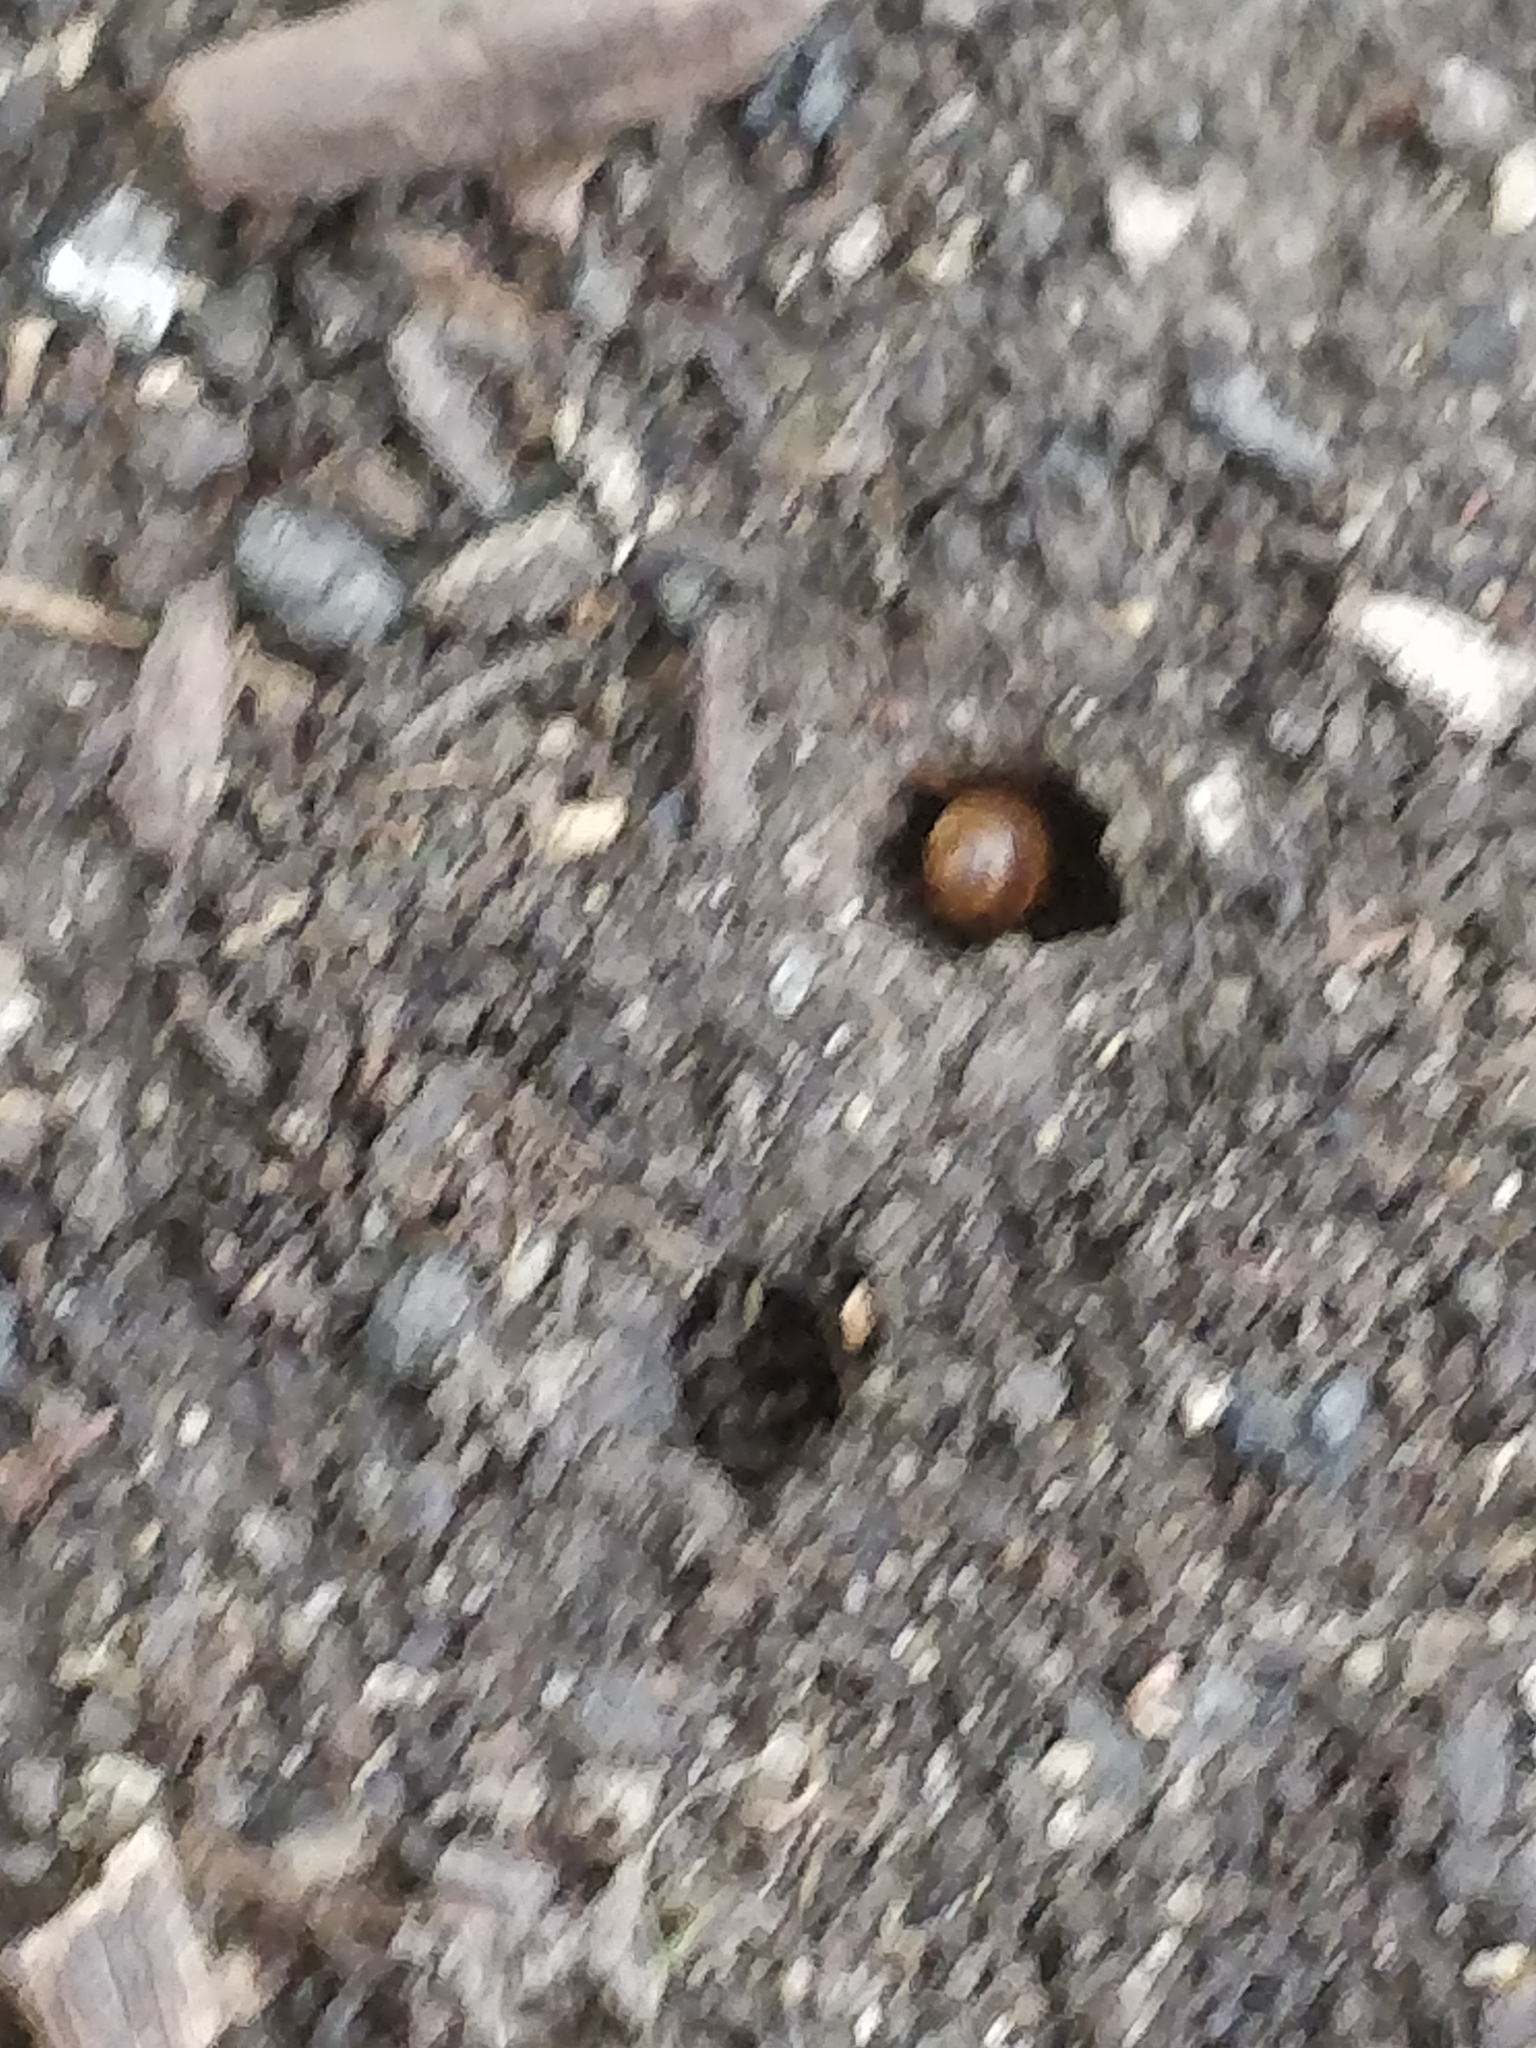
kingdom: Animalia
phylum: Arthropoda
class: Insecta
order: Hymenoptera
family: Formicidae
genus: Lasius
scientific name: Lasius neoniger
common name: Turfgrass ant
